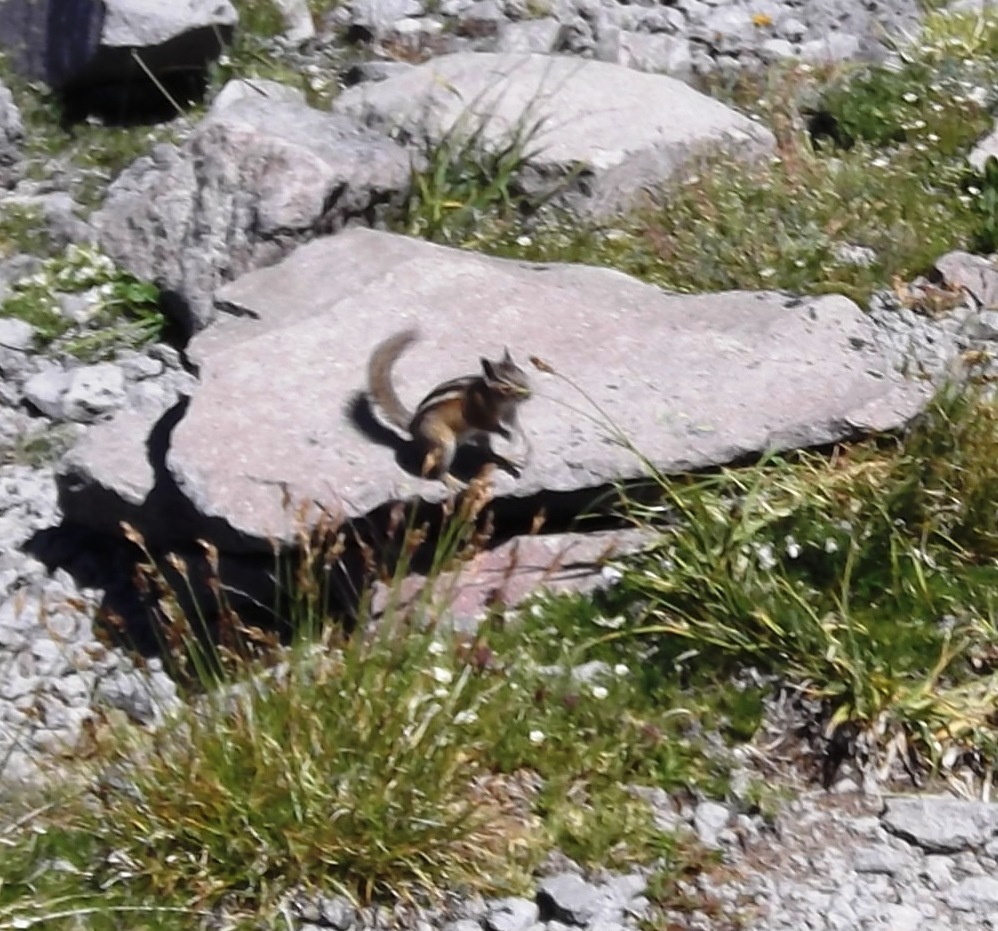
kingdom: Animalia
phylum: Chordata
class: Mammalia
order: Rodentia
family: Sciuridae
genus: Callospermophilus
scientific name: Callospermophilus saturatus
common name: Cascade golden-mantled ground squirrel
